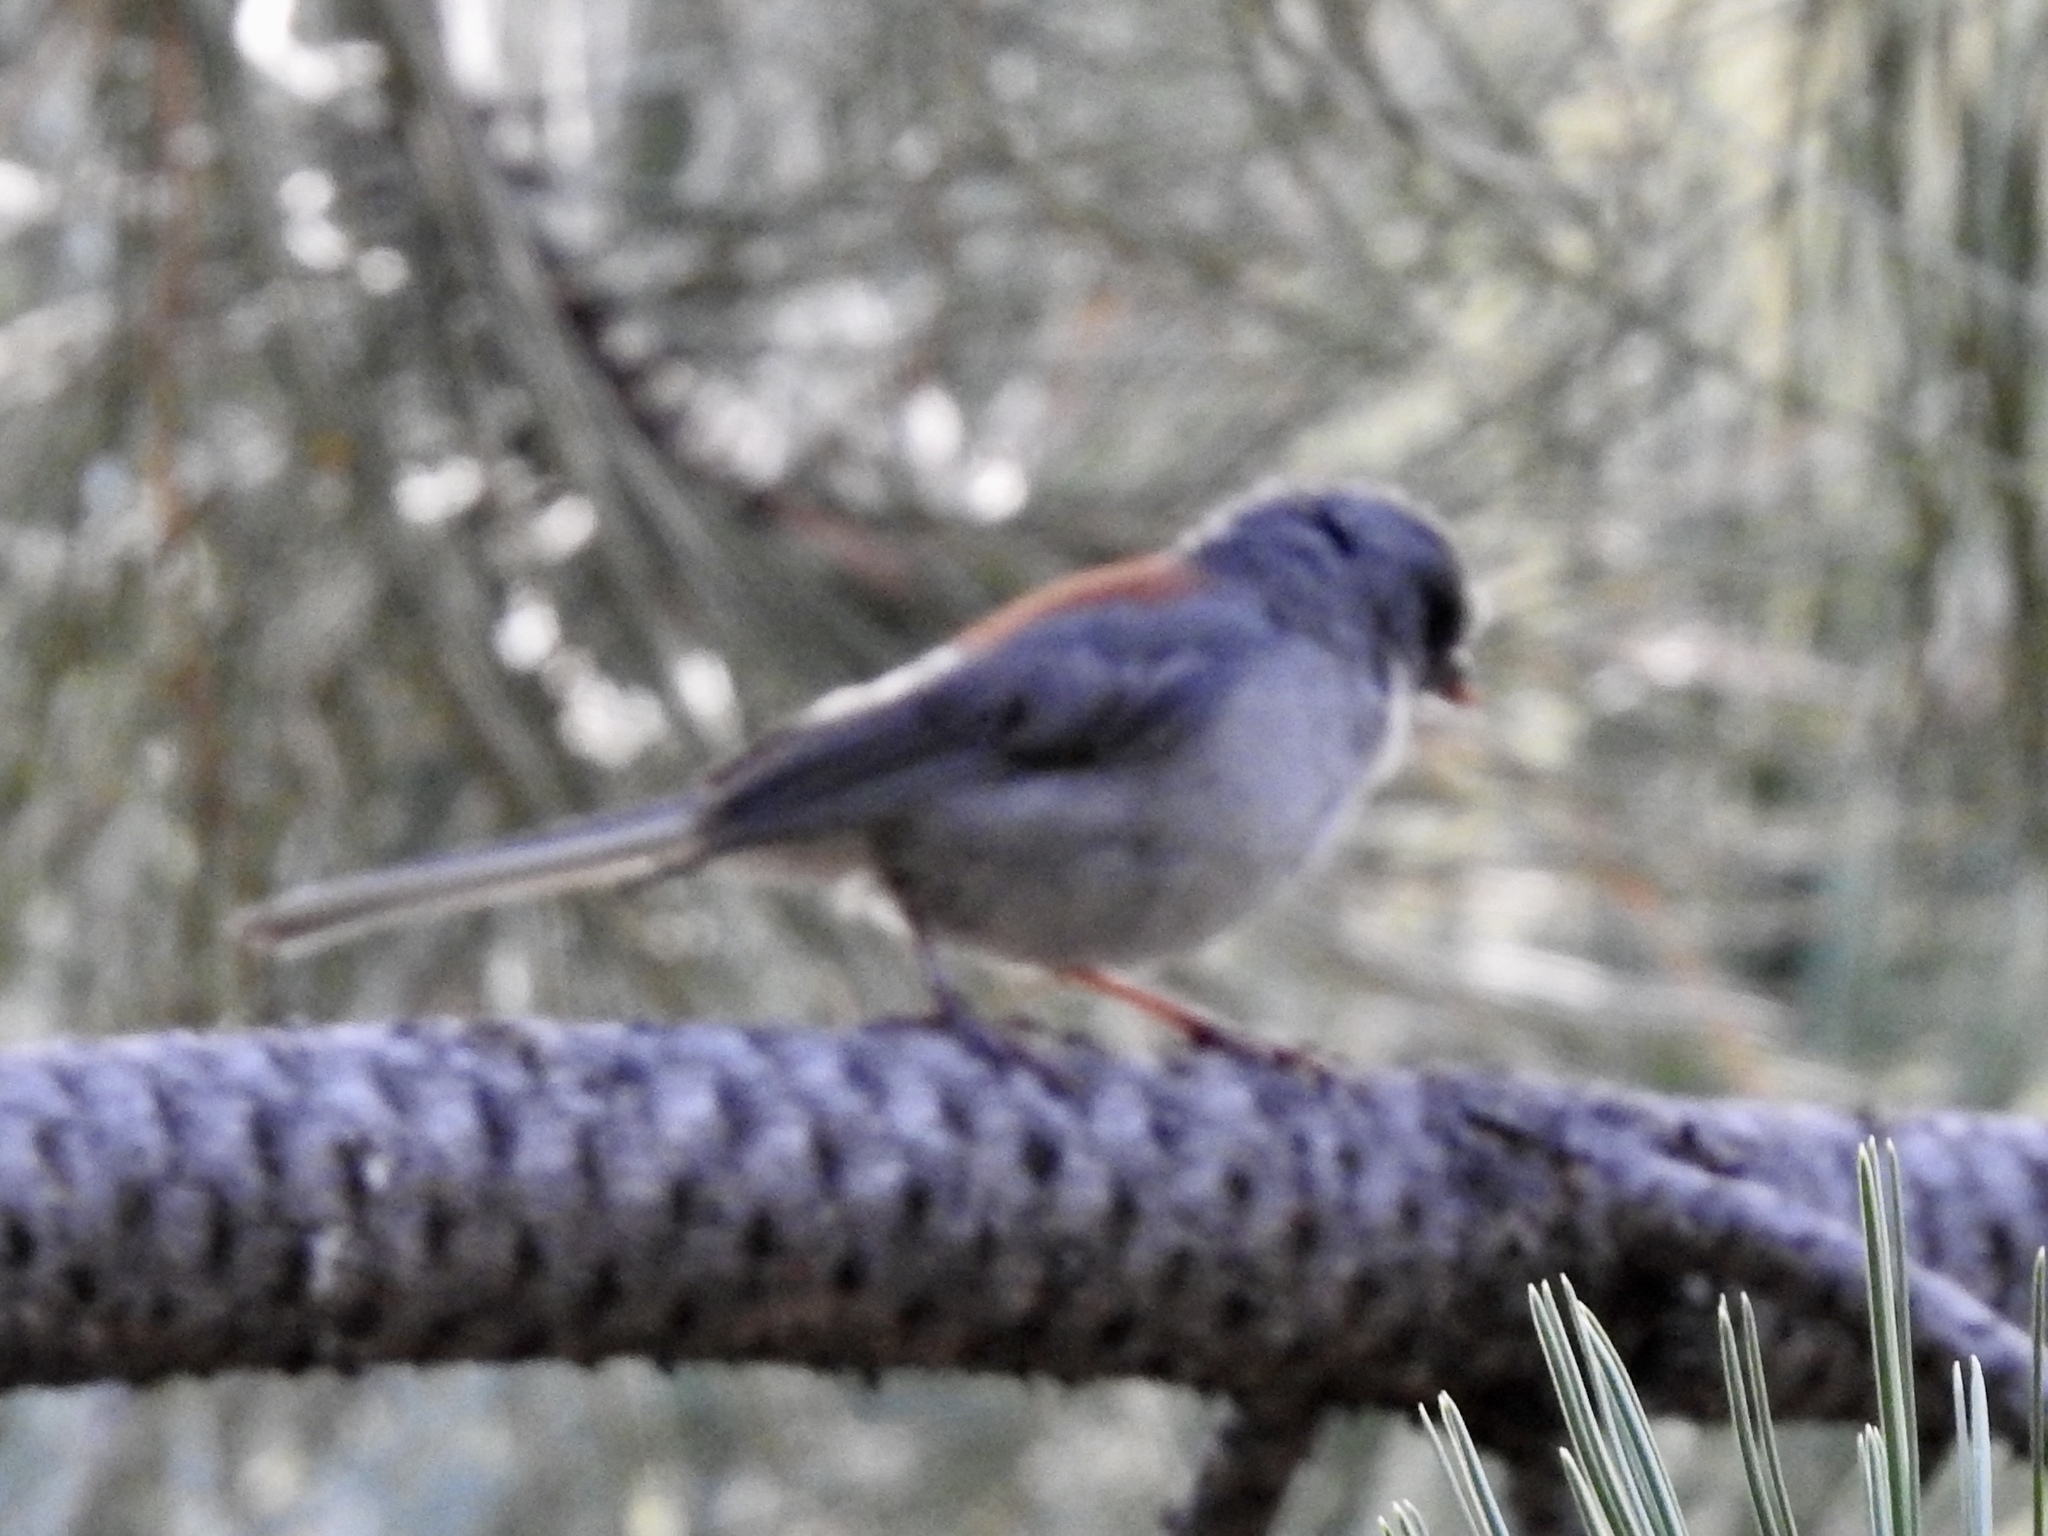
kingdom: Animalia
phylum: Chordata
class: Aves
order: Passeriformes
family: Passerellidae
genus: Junco
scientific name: Junco hyemalis
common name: Dark-eyed junco
